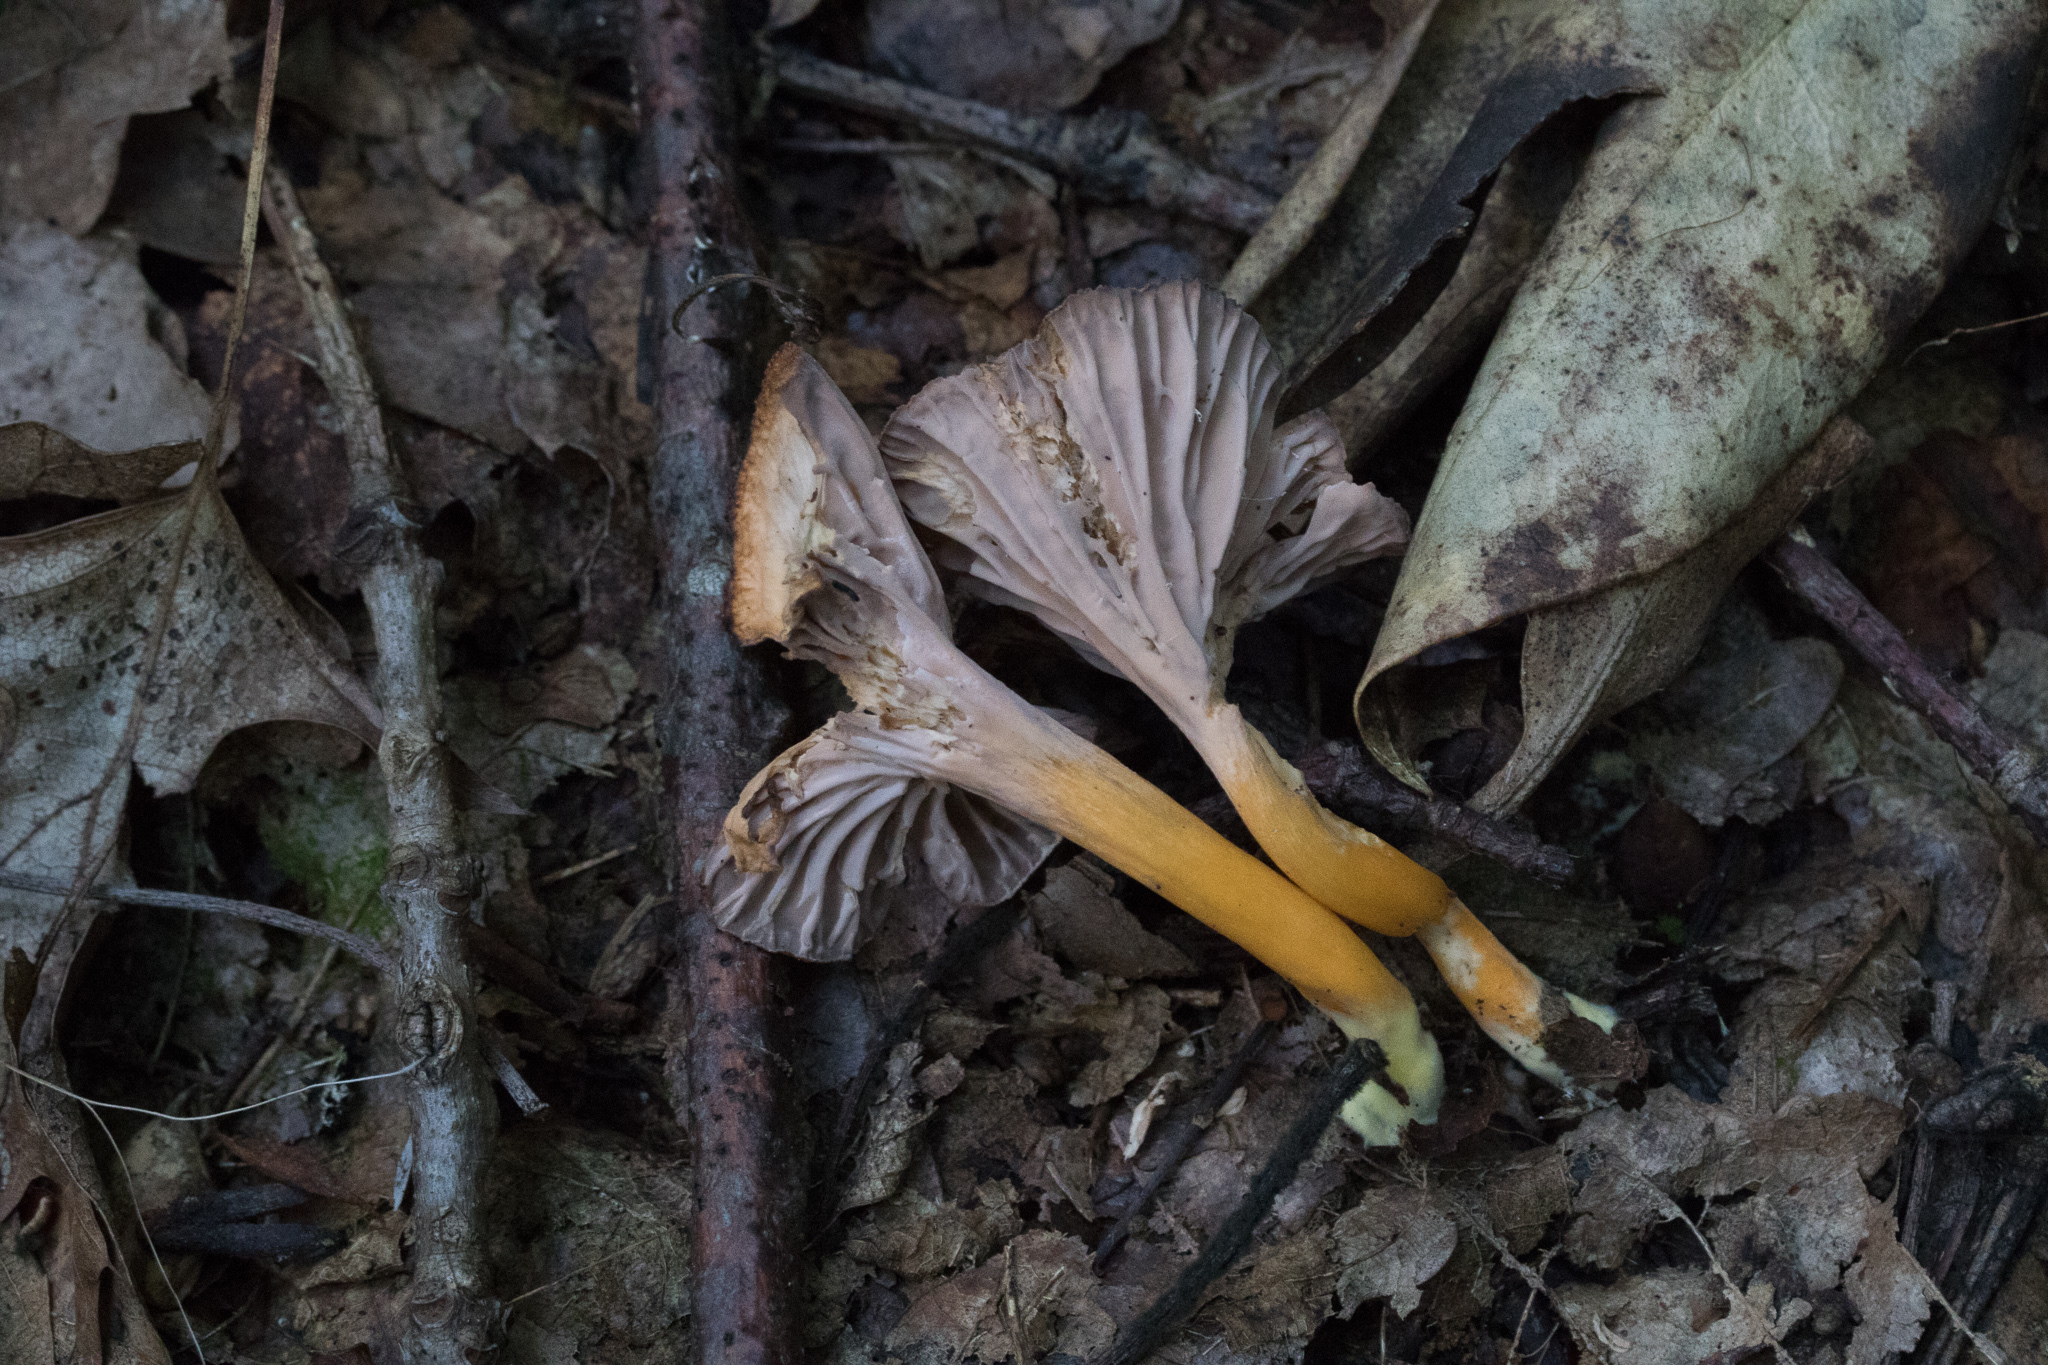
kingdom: Fungi
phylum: Basidiomycota
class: Agaricomycetes
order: Cantharellales
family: Hydnaceae
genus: Craterellus
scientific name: Craterellus tubaeformis
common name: Yellowfoot
